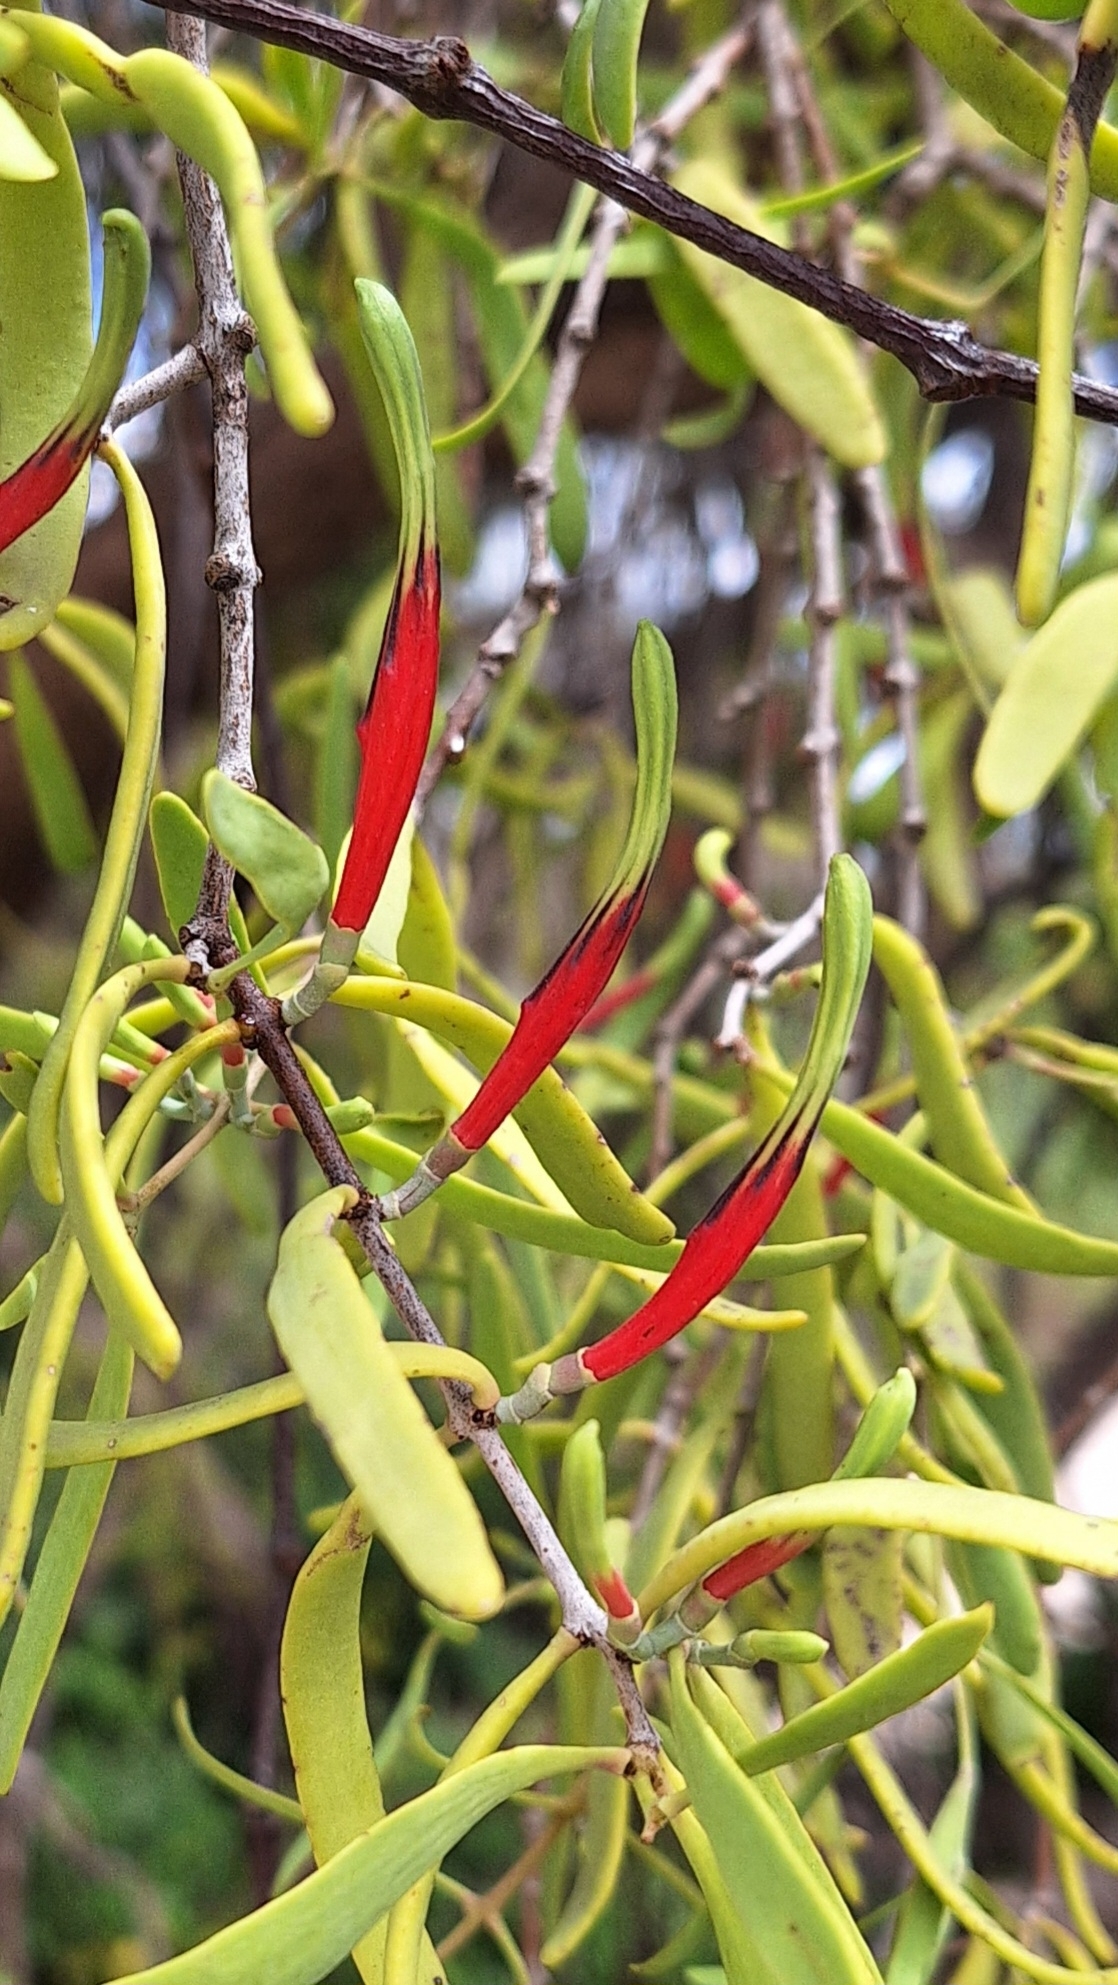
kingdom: Plantae
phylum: Tracheophyta
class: Magnoliopsida
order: Santalales
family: Loranthaceae
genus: Lysiana
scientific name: Lysiana exocarpi
